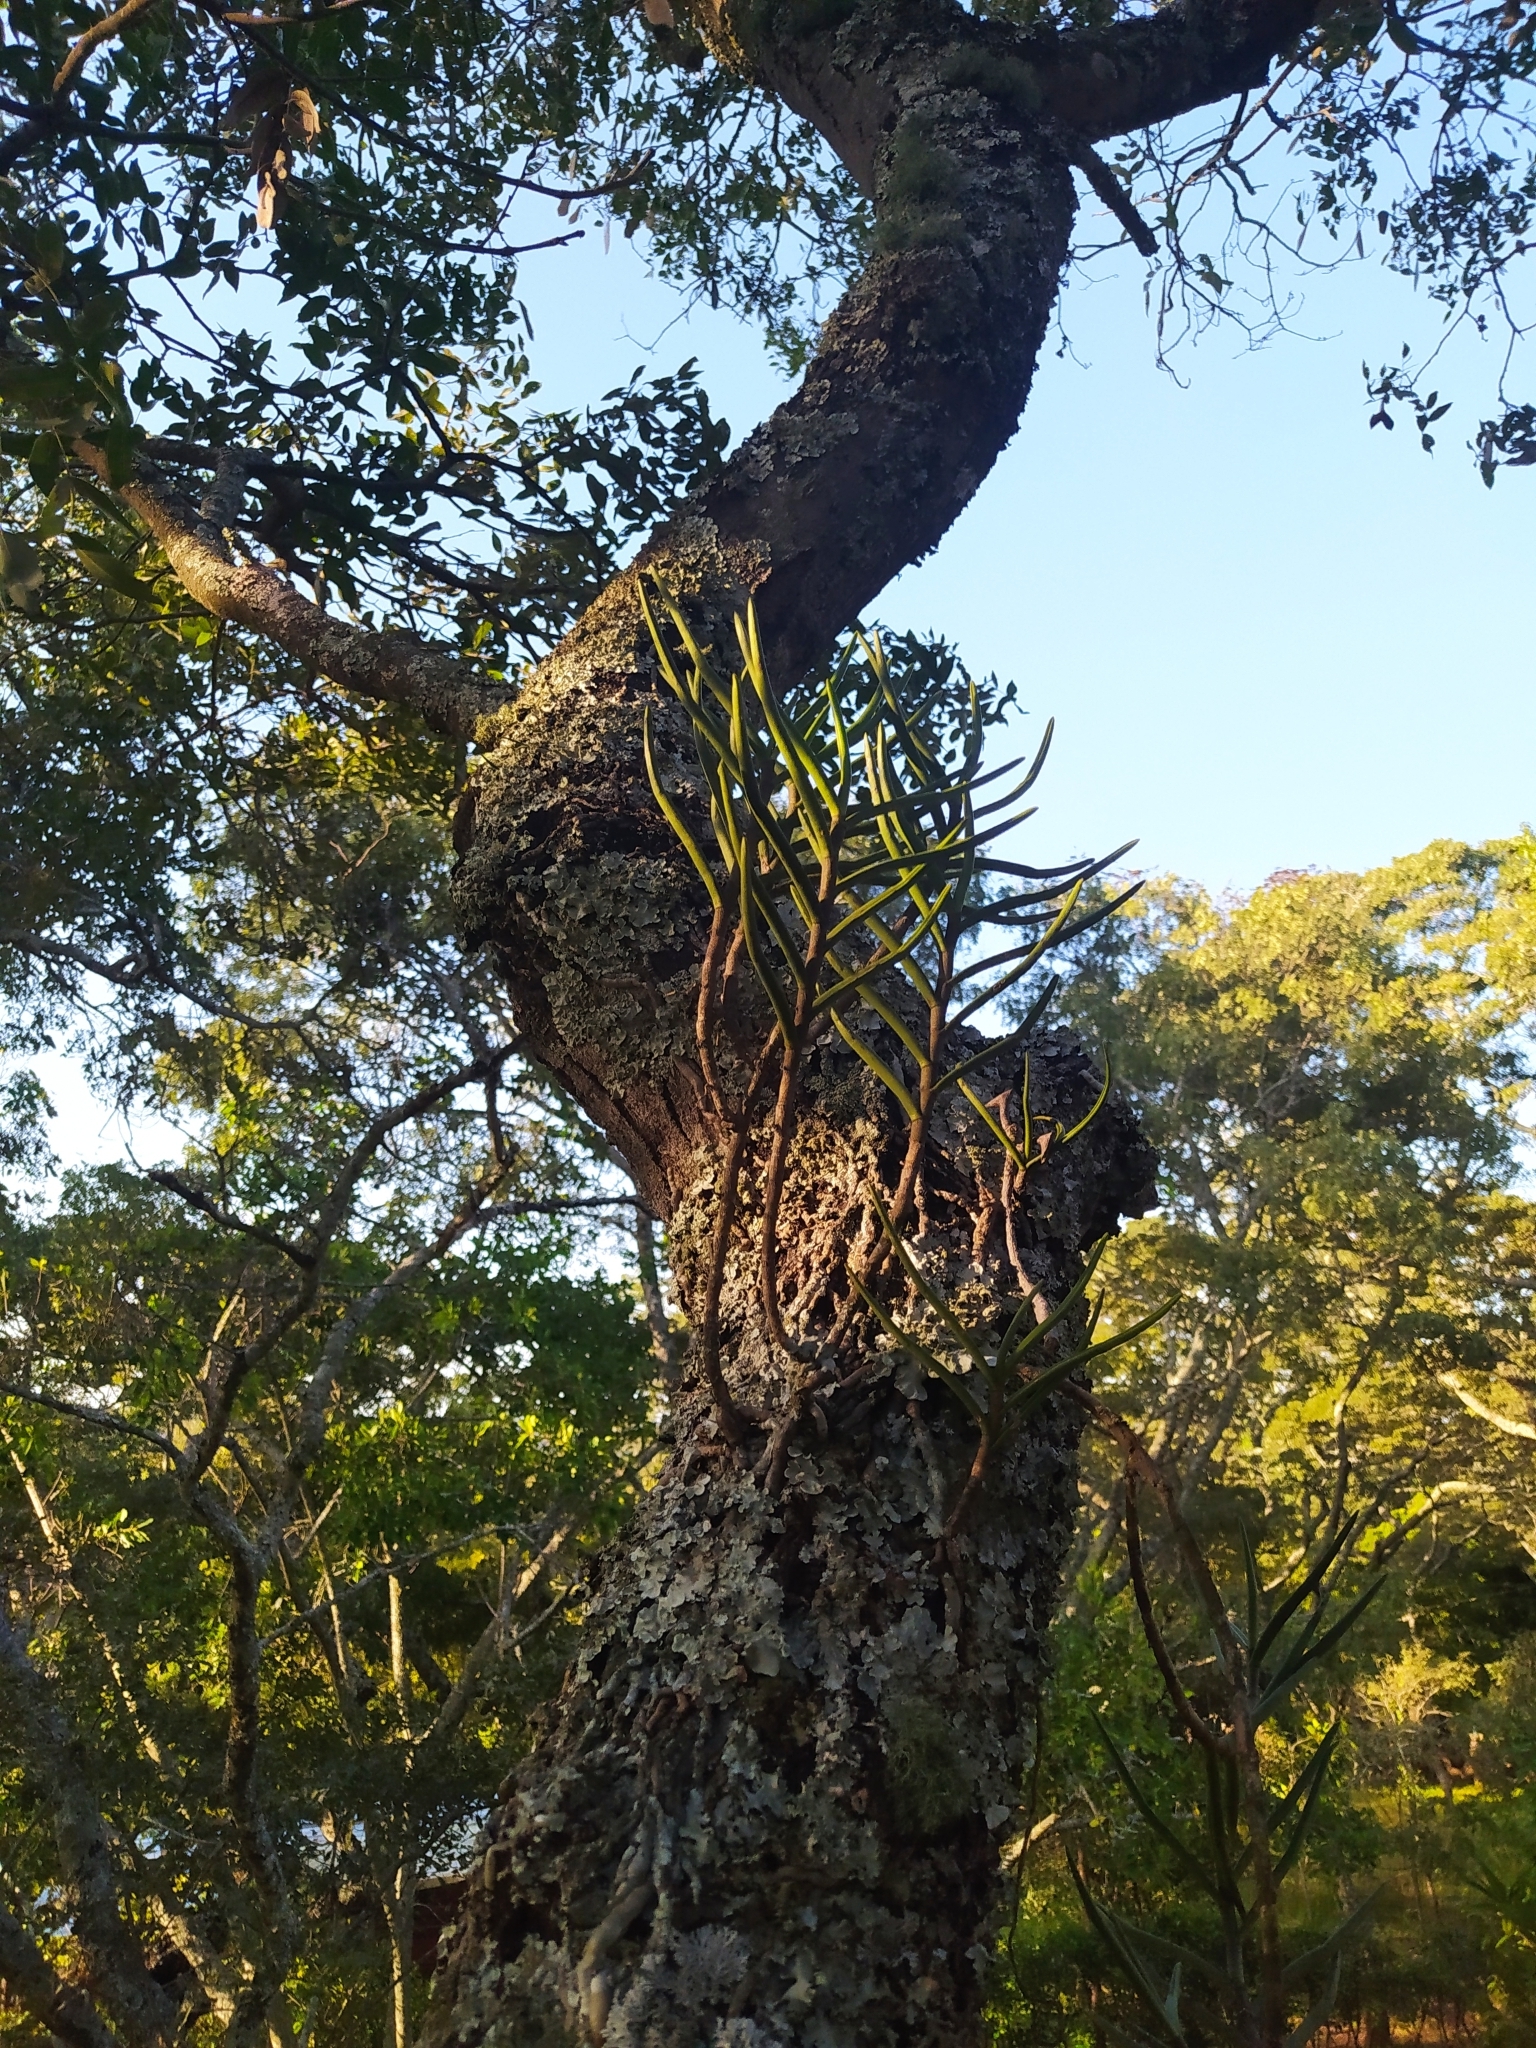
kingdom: Plantae
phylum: Tracheophyta
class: Liliopsida
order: Asparagales
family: Orchidaceae
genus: Tridactyle
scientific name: Tridactyle tridentata
